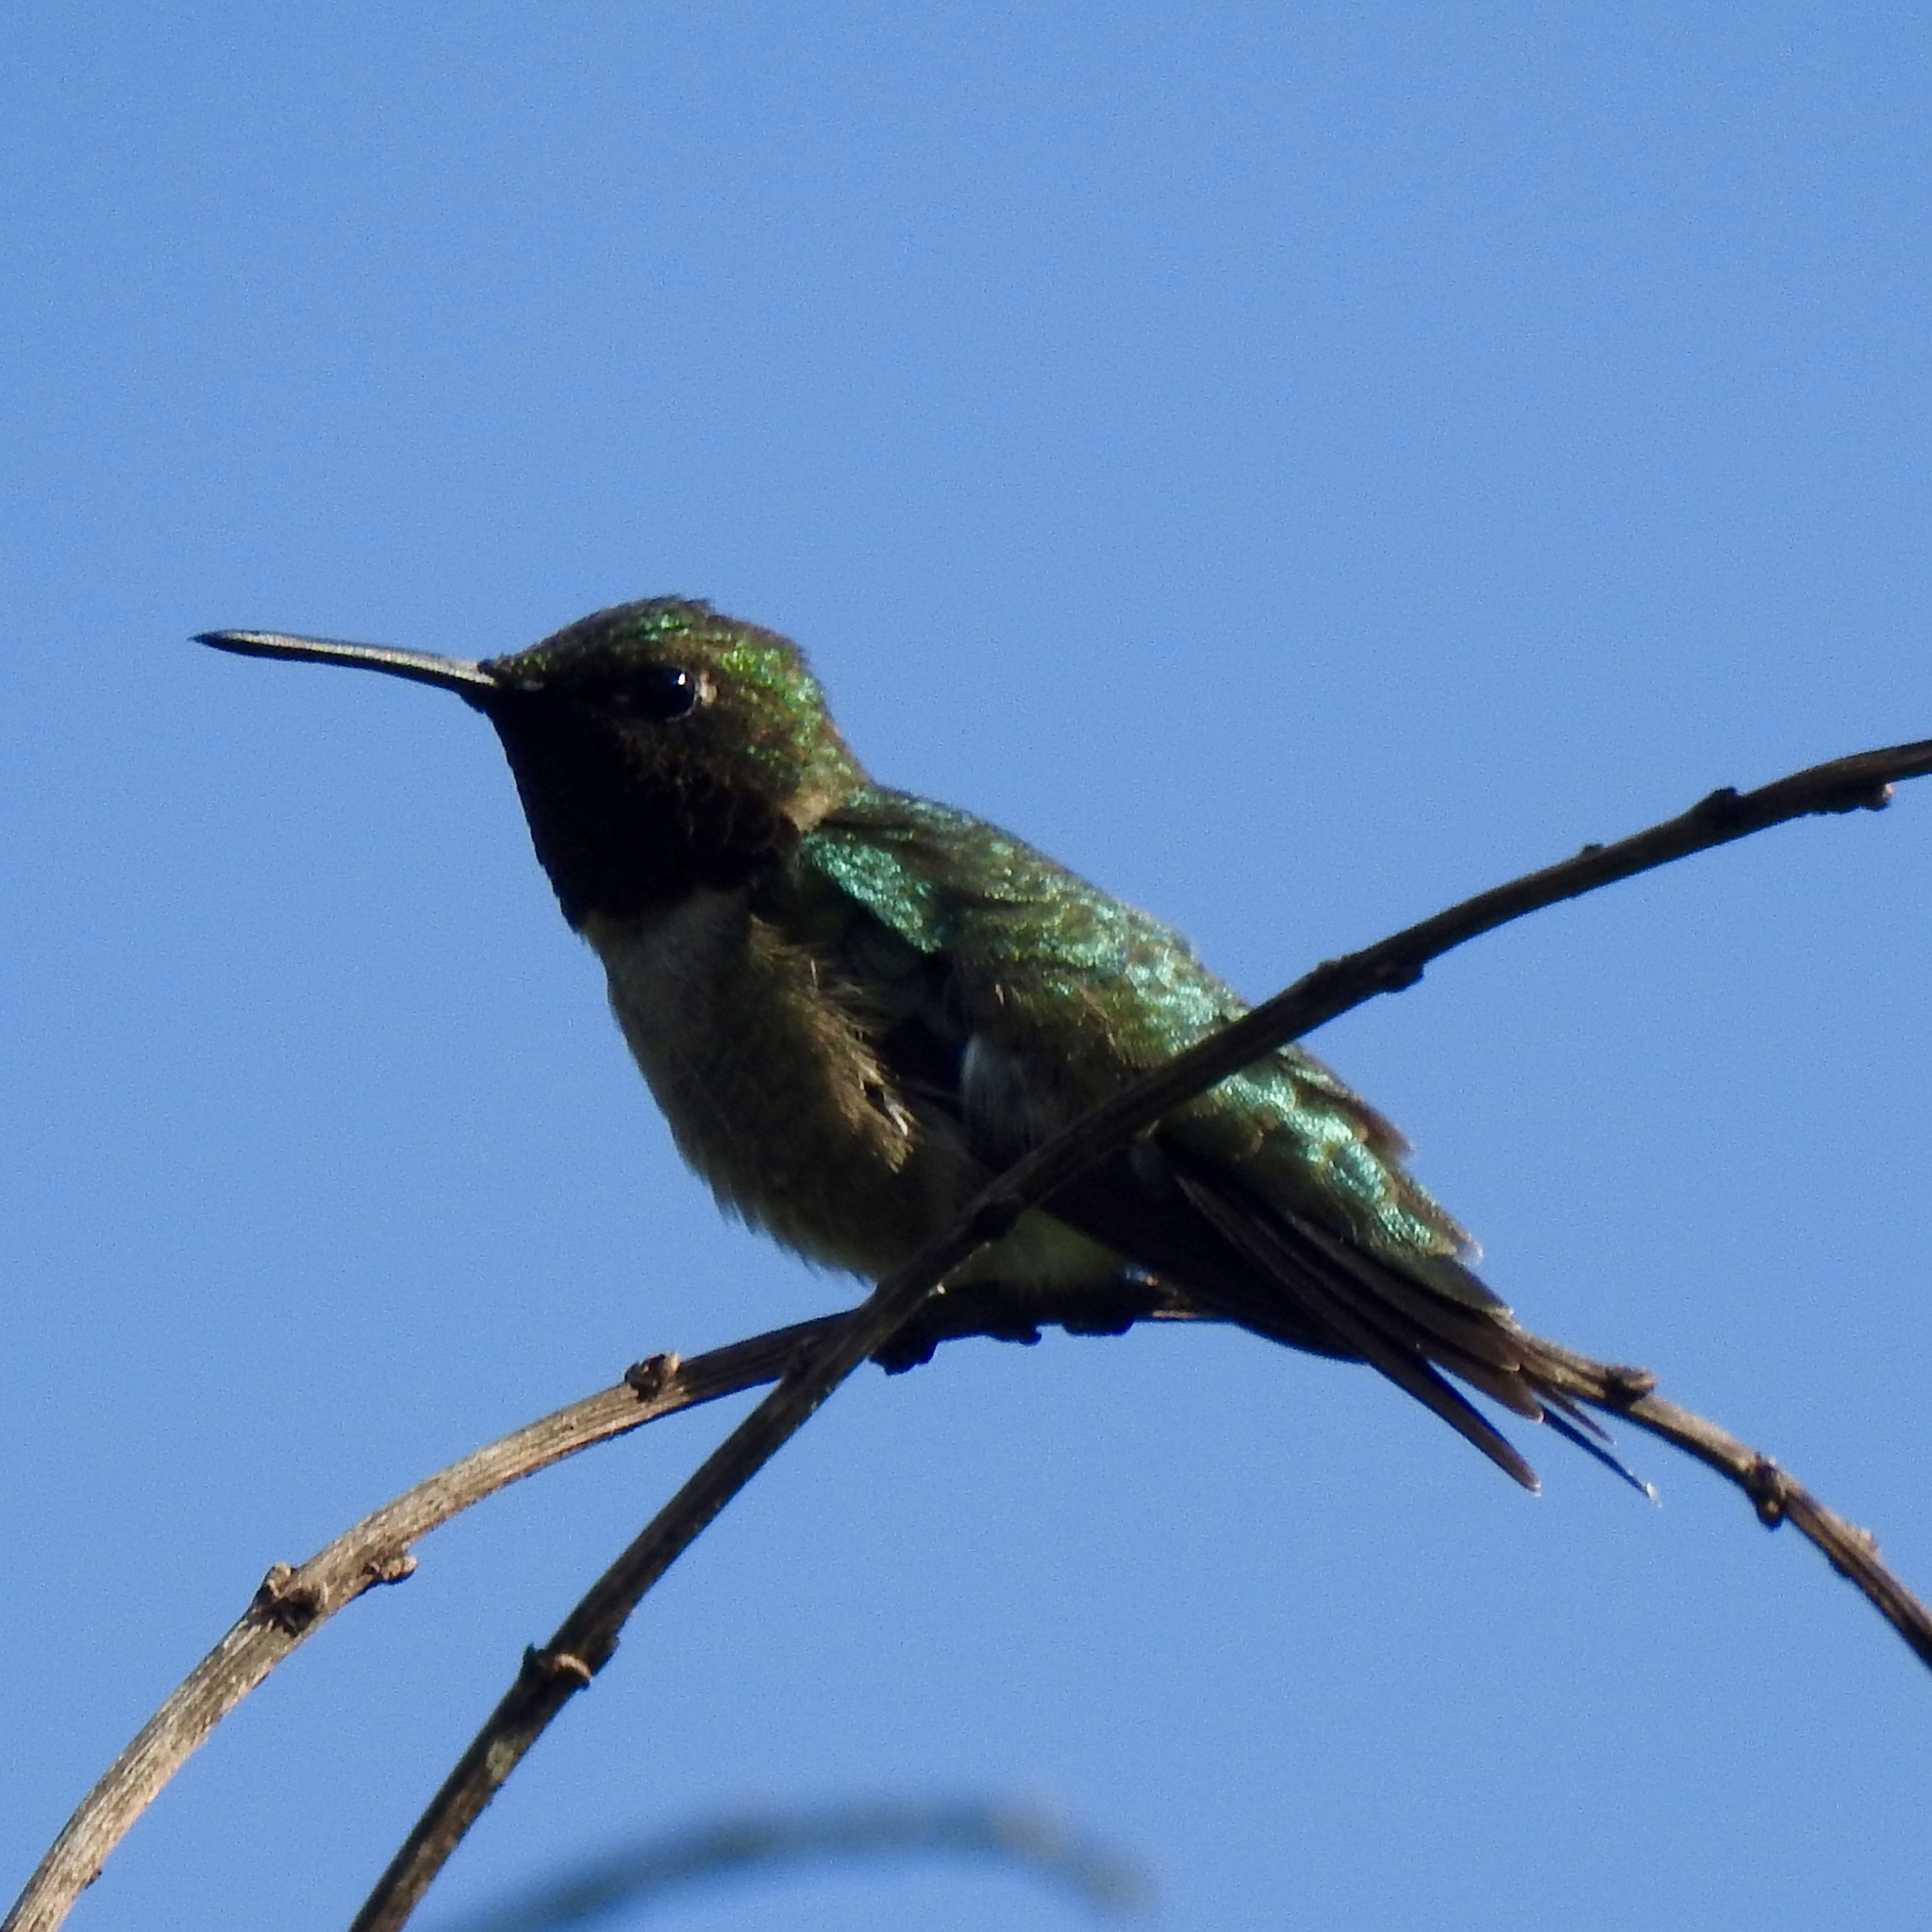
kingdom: Animalia
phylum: Chordata
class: Aves
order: Apodiformes
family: Trochilidae
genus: Archilochus
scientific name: Archilochus colubris
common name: Ruby-throated hummingbird
